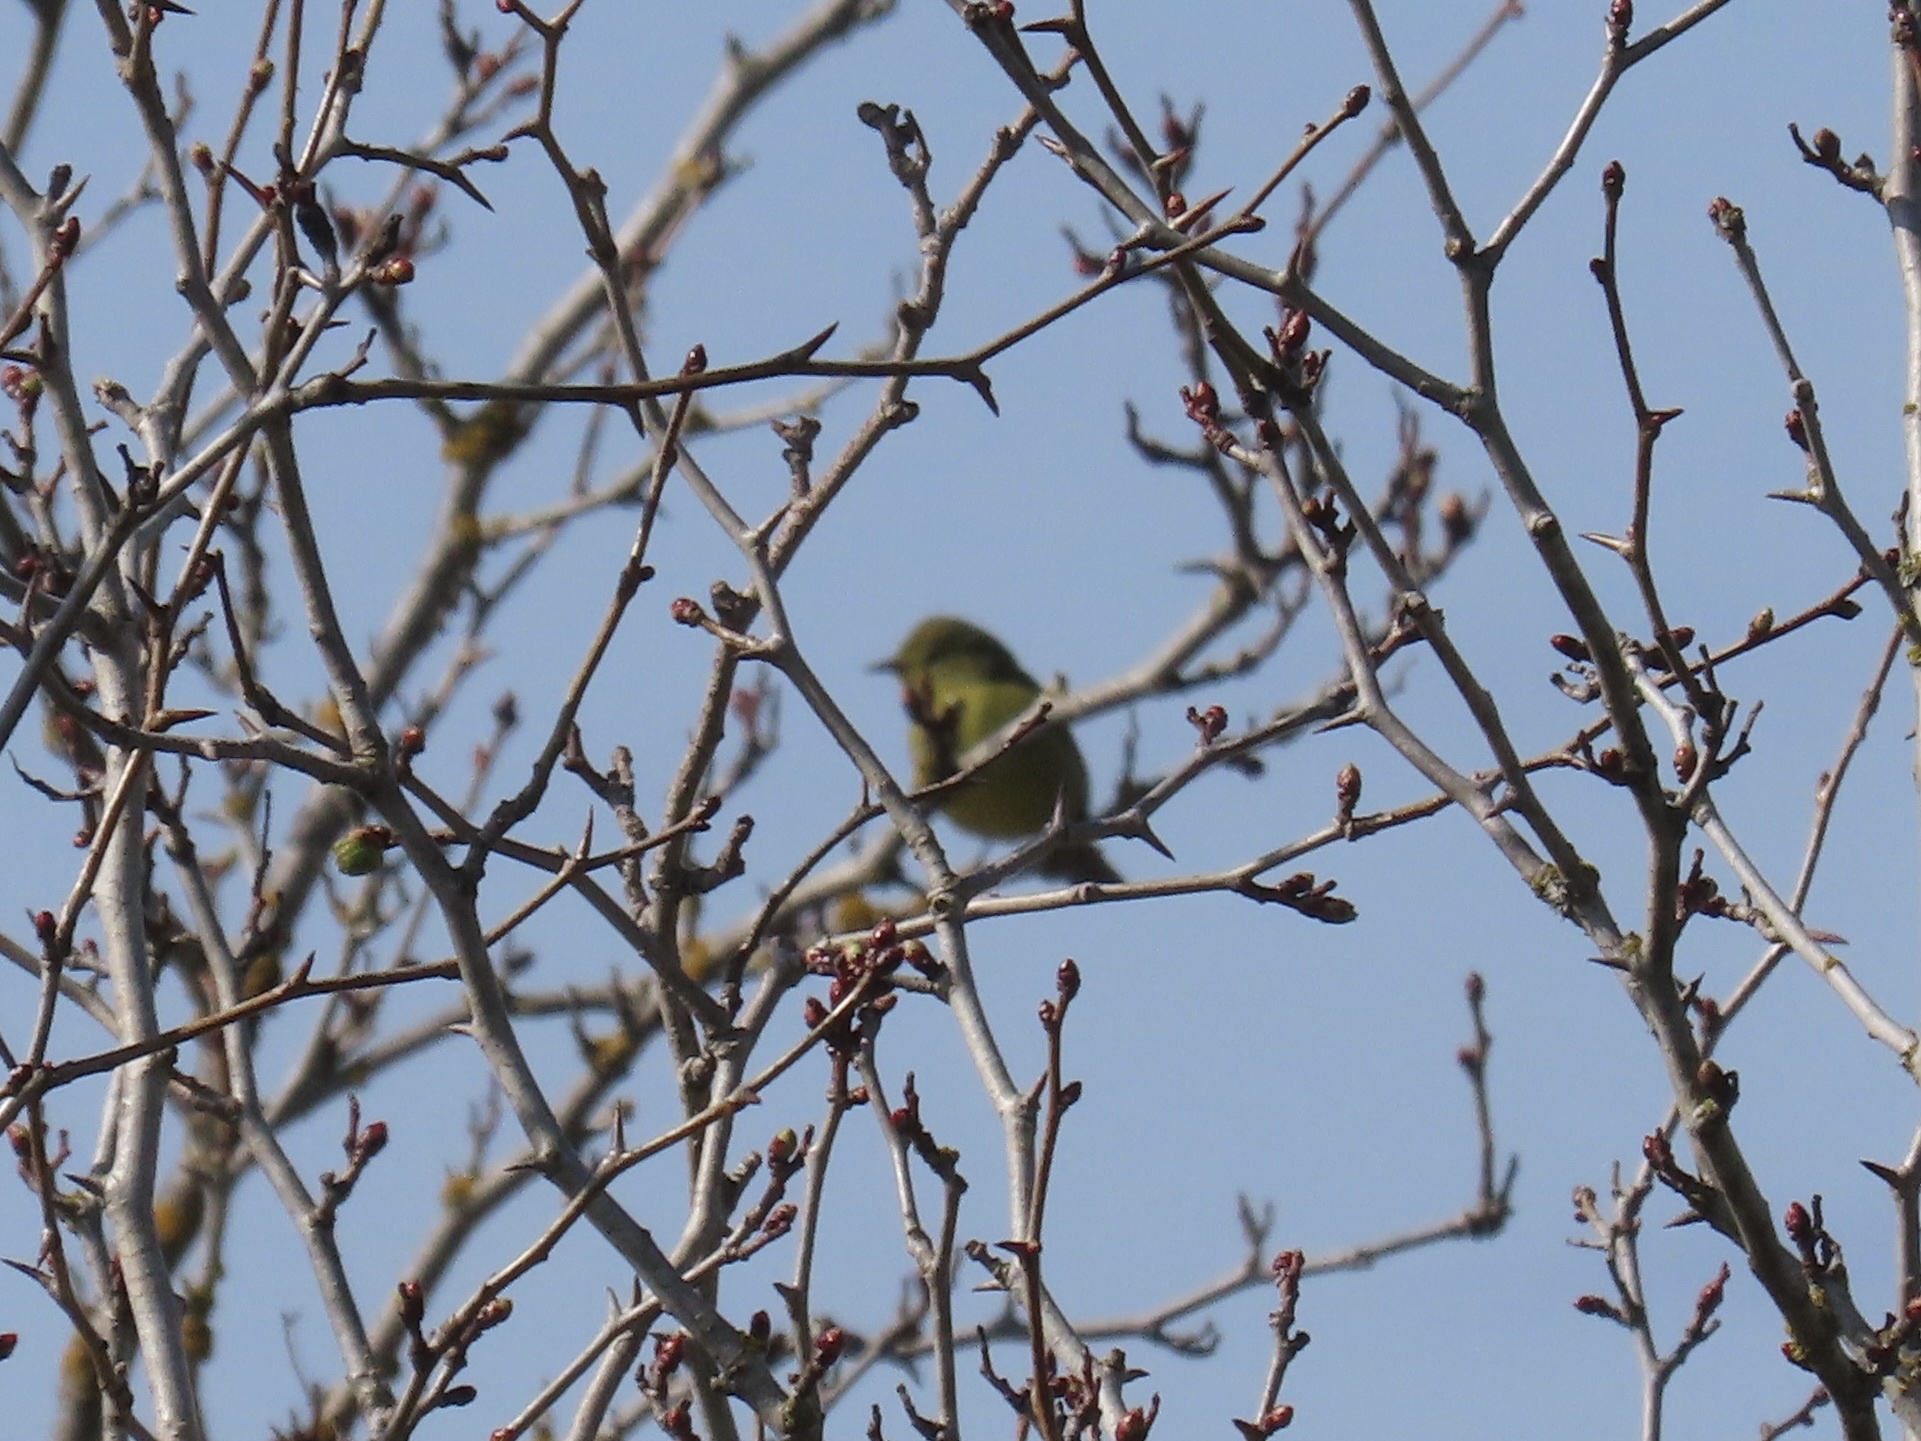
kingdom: Animalia
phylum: Chordata
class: Aves
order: Passeriformes
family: Parulidae
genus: Leiothlypis
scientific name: Leiothlypis celata
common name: Orange-crowned warbler
